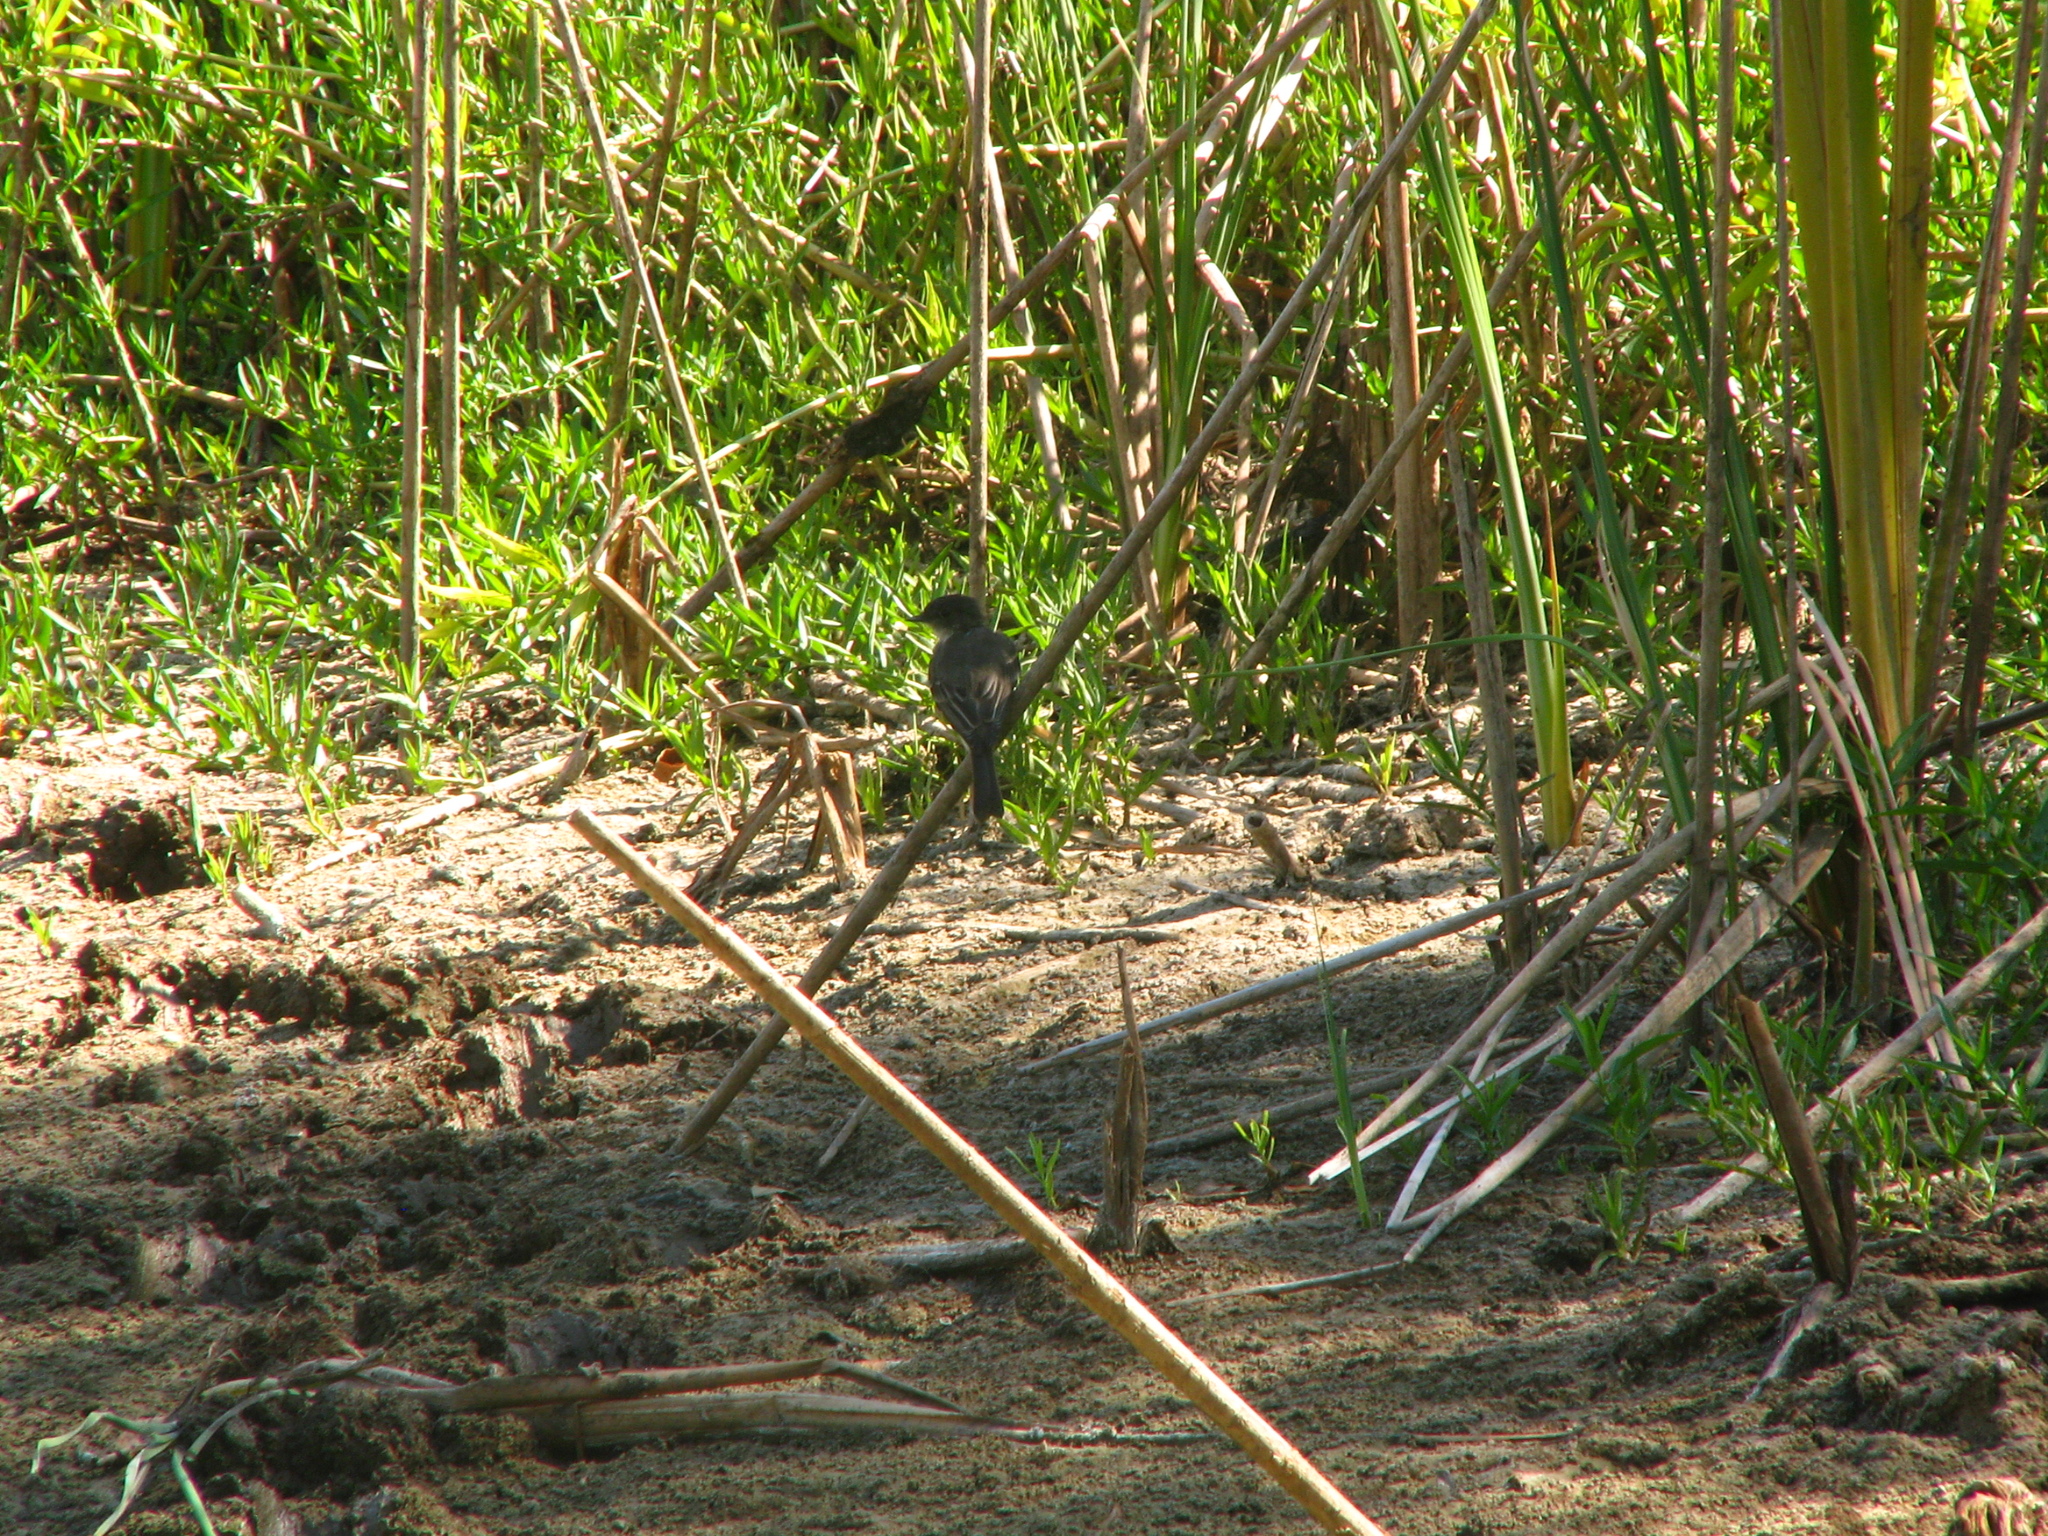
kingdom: Animalia
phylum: Chordata
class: Aves
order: Passeriformes
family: Tyrannidae
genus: Sayornis
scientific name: Sayornis phoebe
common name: Eastern phoebe
